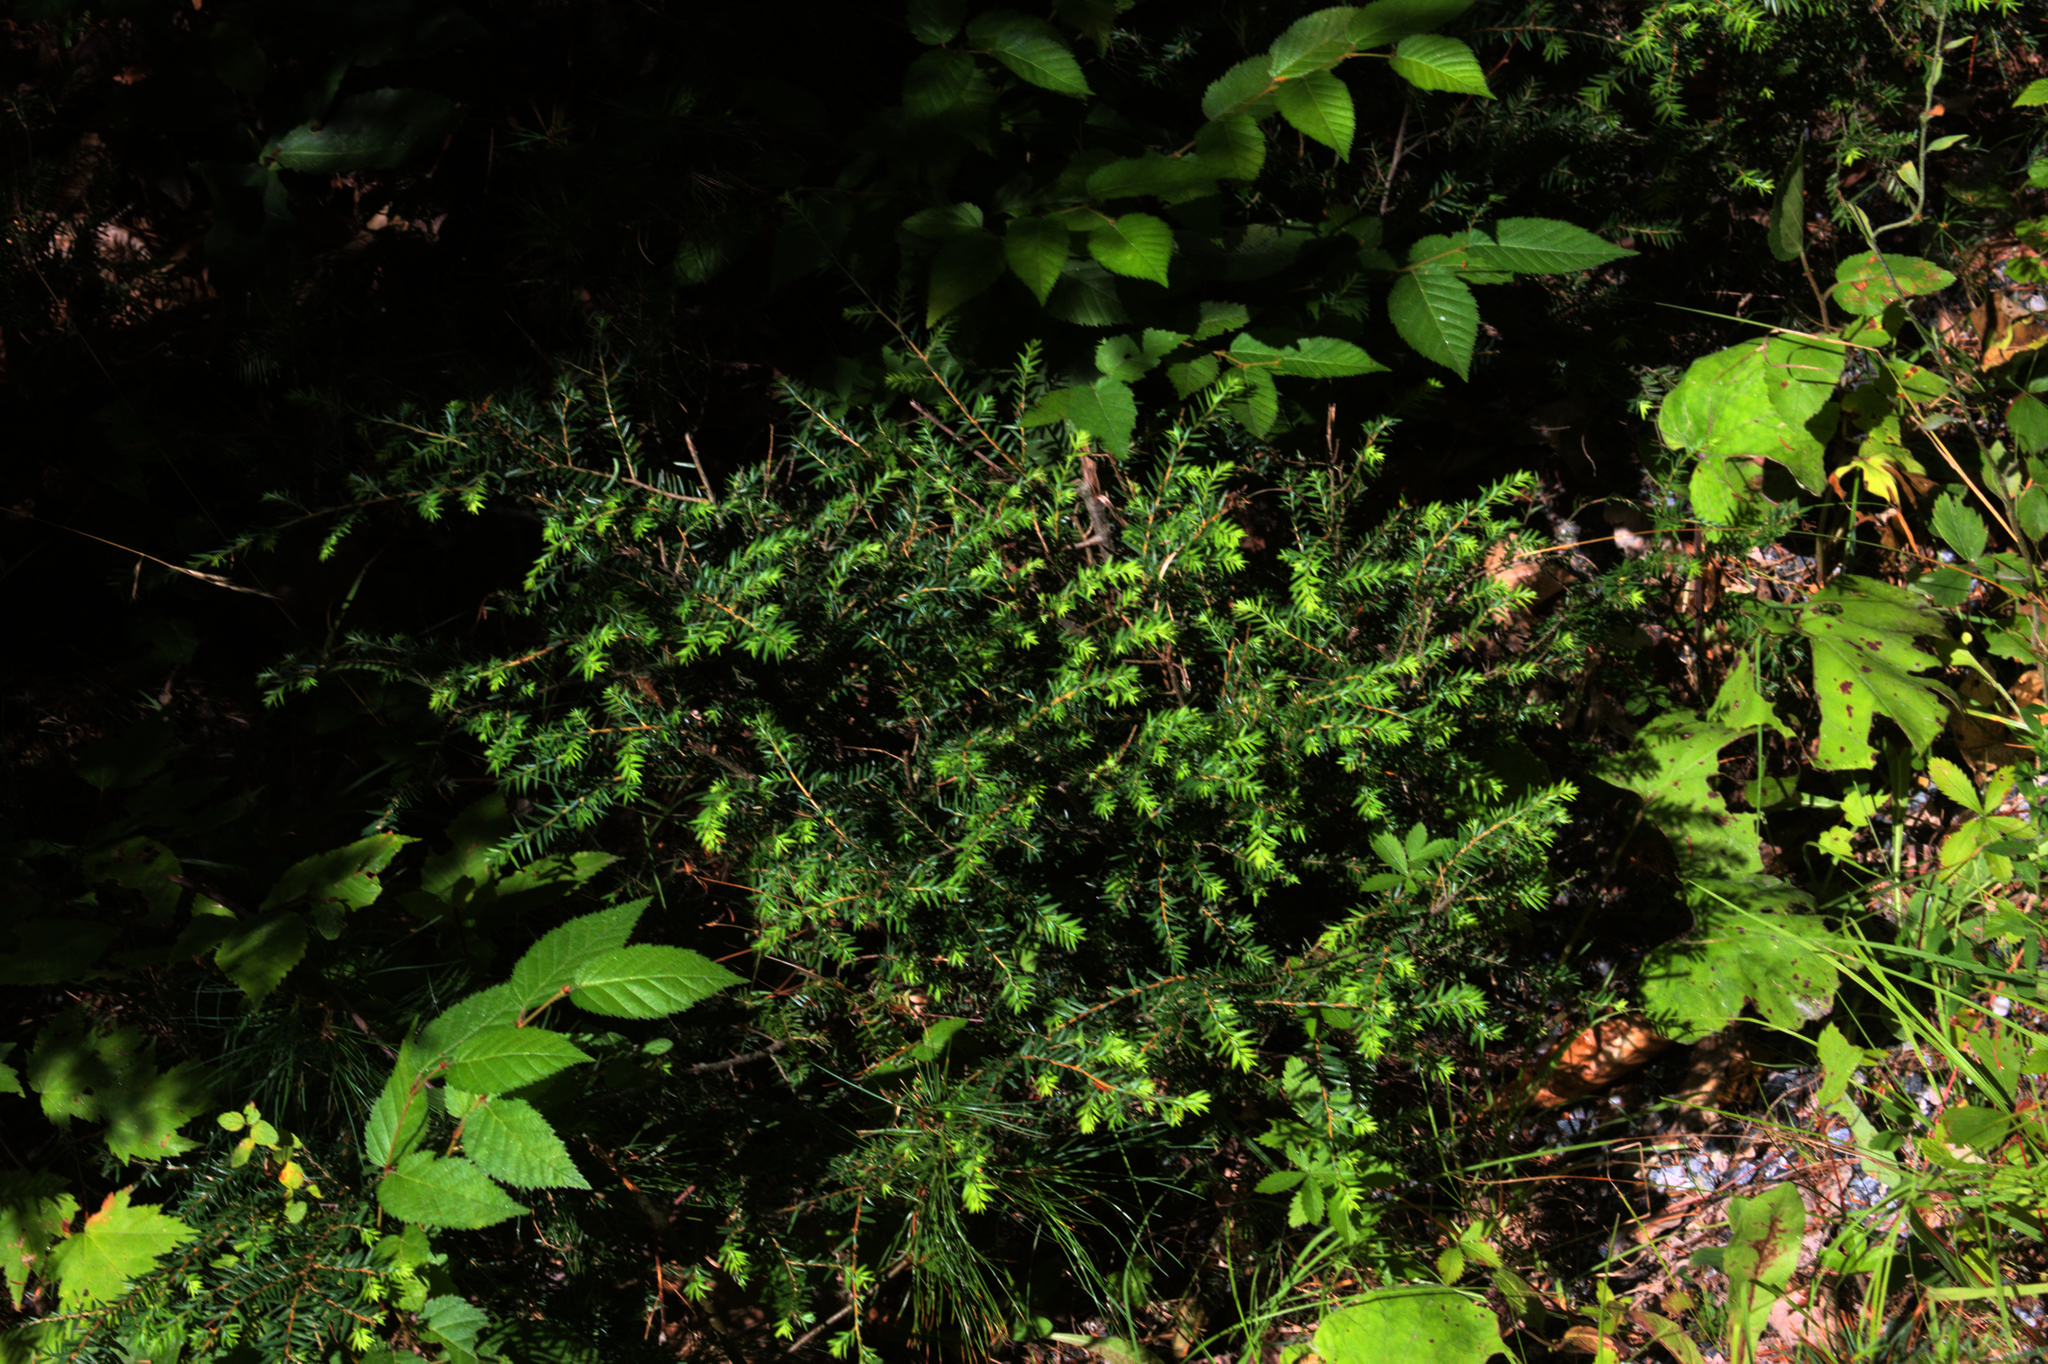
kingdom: Plantae
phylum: Tracheophyta
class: Pinopsida
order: Pinales
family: Pinaceae
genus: Tsuga
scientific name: Tsuga canadensis
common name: Eastern hemlock
